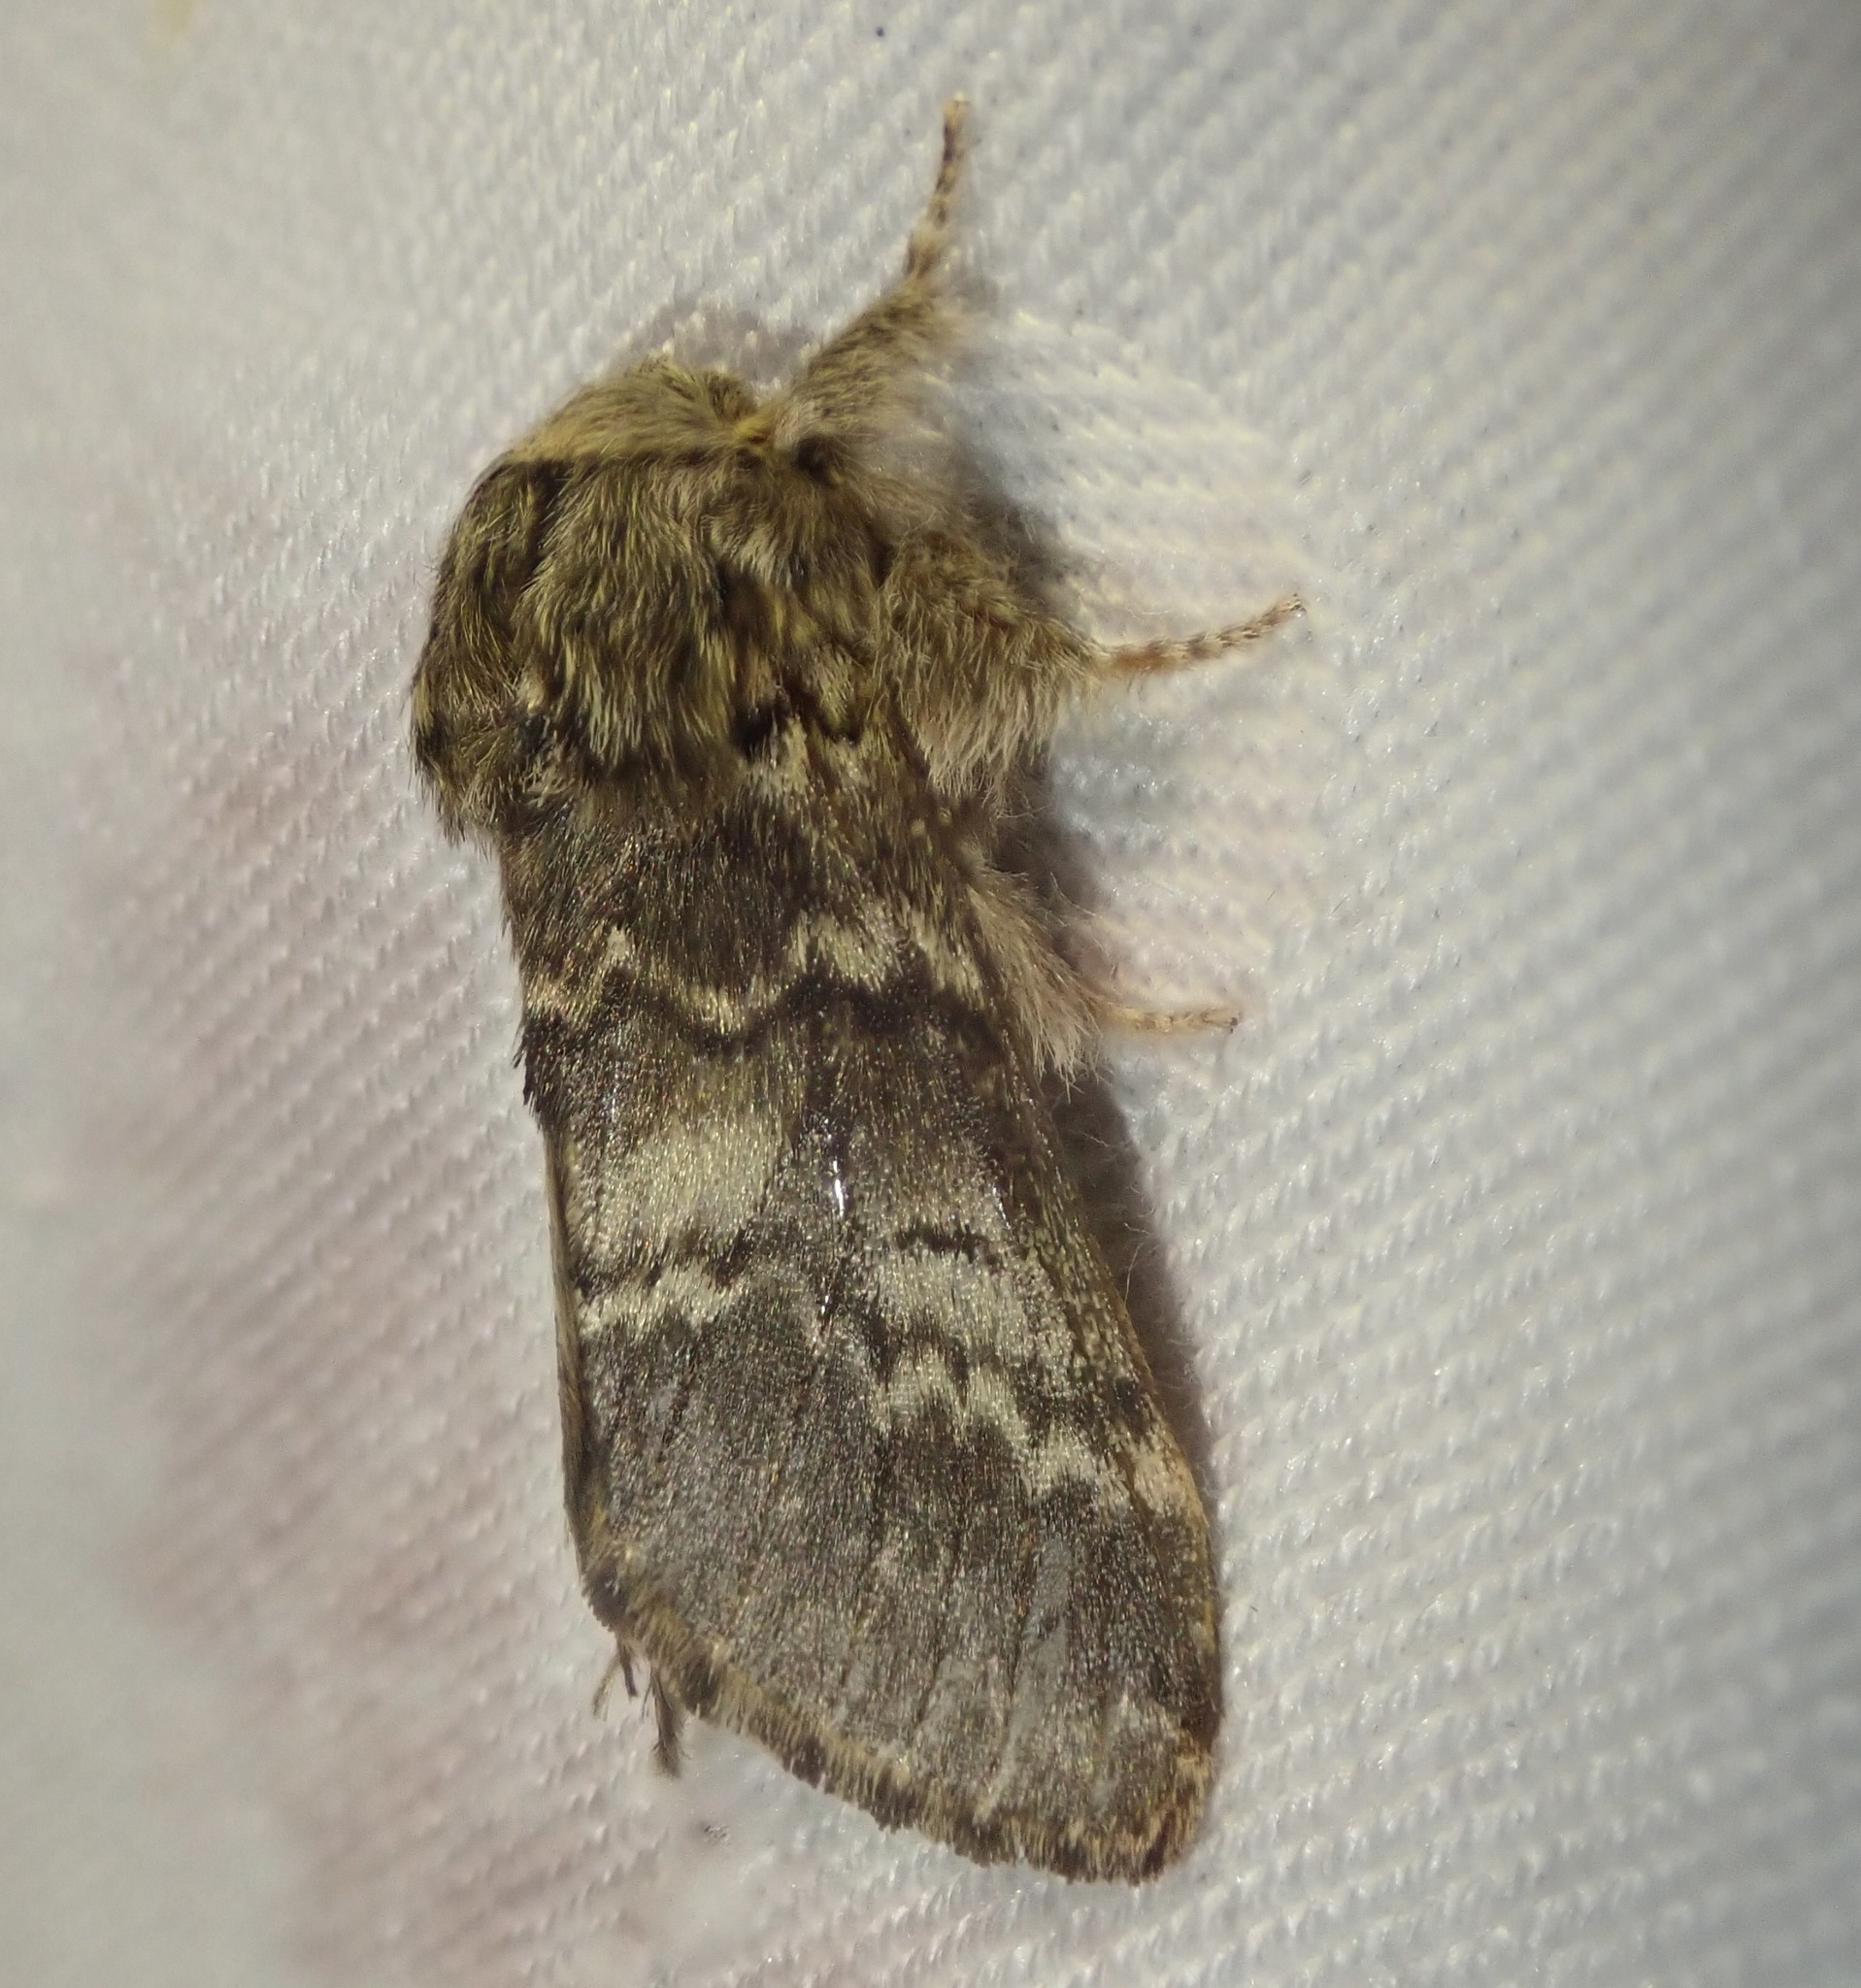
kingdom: Animalia
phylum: Arthropoda
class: Insecta
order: Lepidoptera
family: Notodontidae
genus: Drymonia
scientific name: Drymonia ruficornis
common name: Lunar marbled brown
